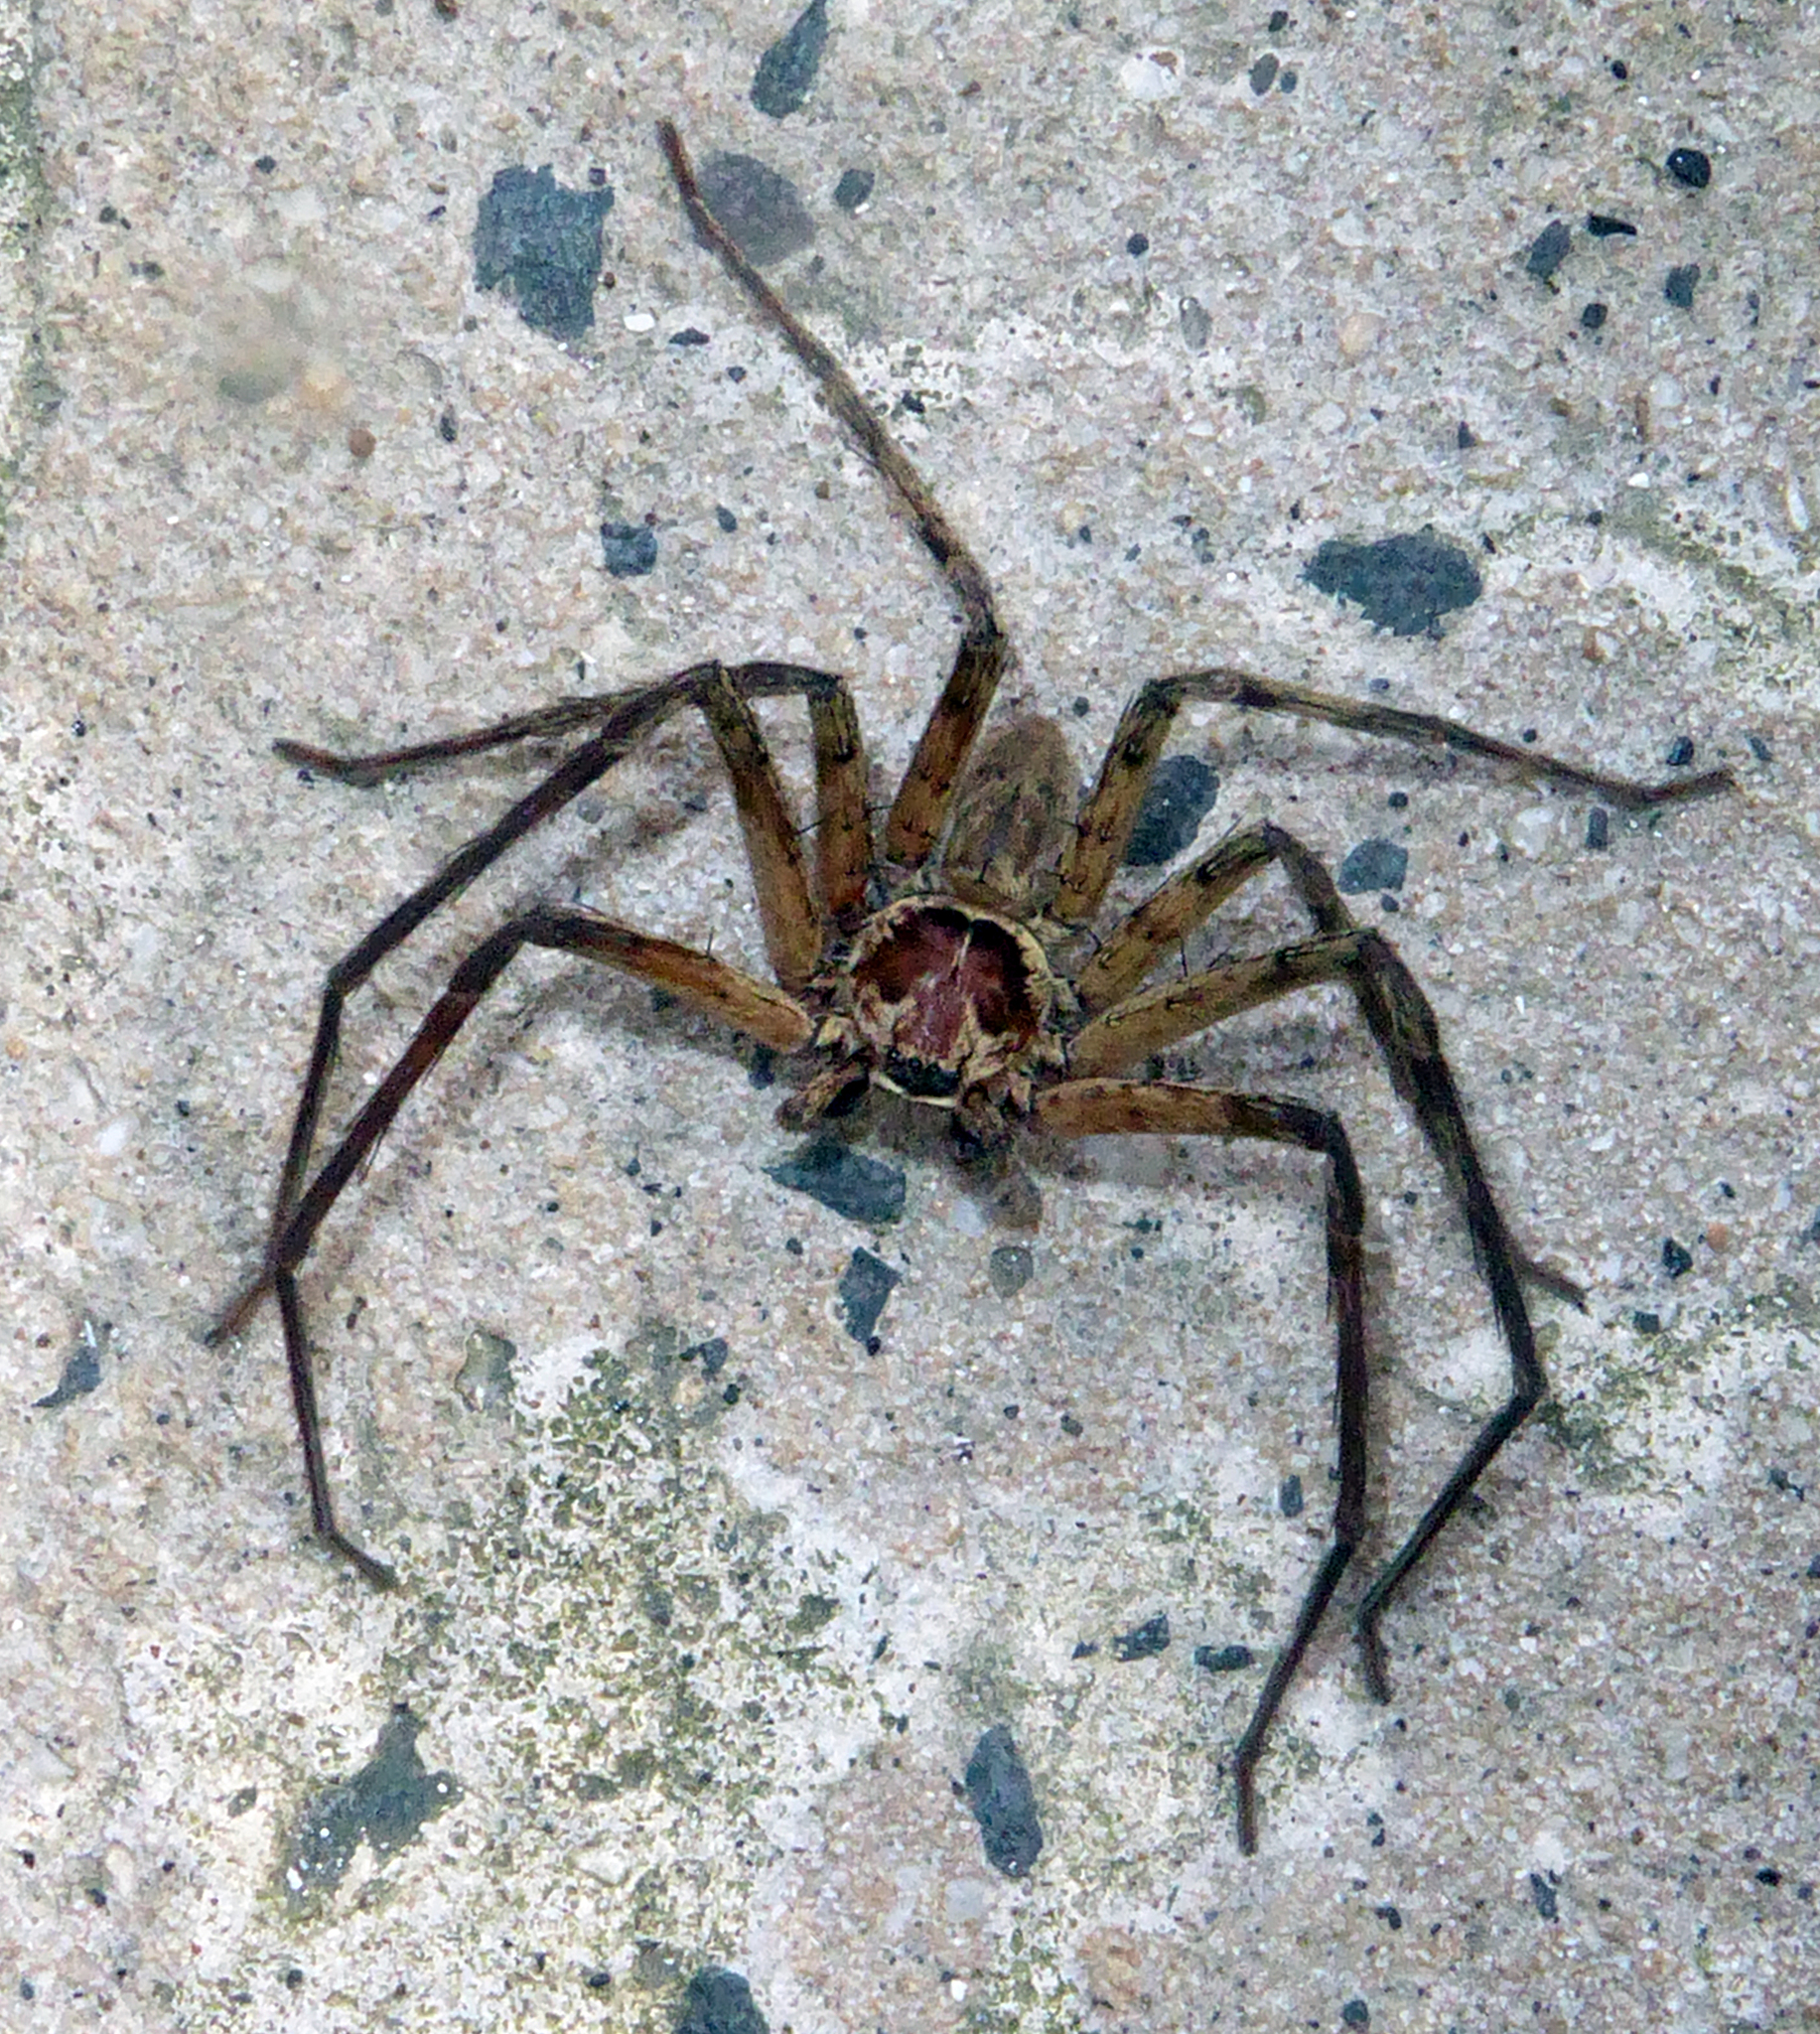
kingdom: Animalia
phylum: Arthropoda
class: Arachnida
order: Araneae
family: Sparassidae
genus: Heteropoda
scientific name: Heteropoda venatoria
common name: Huntsman spider
